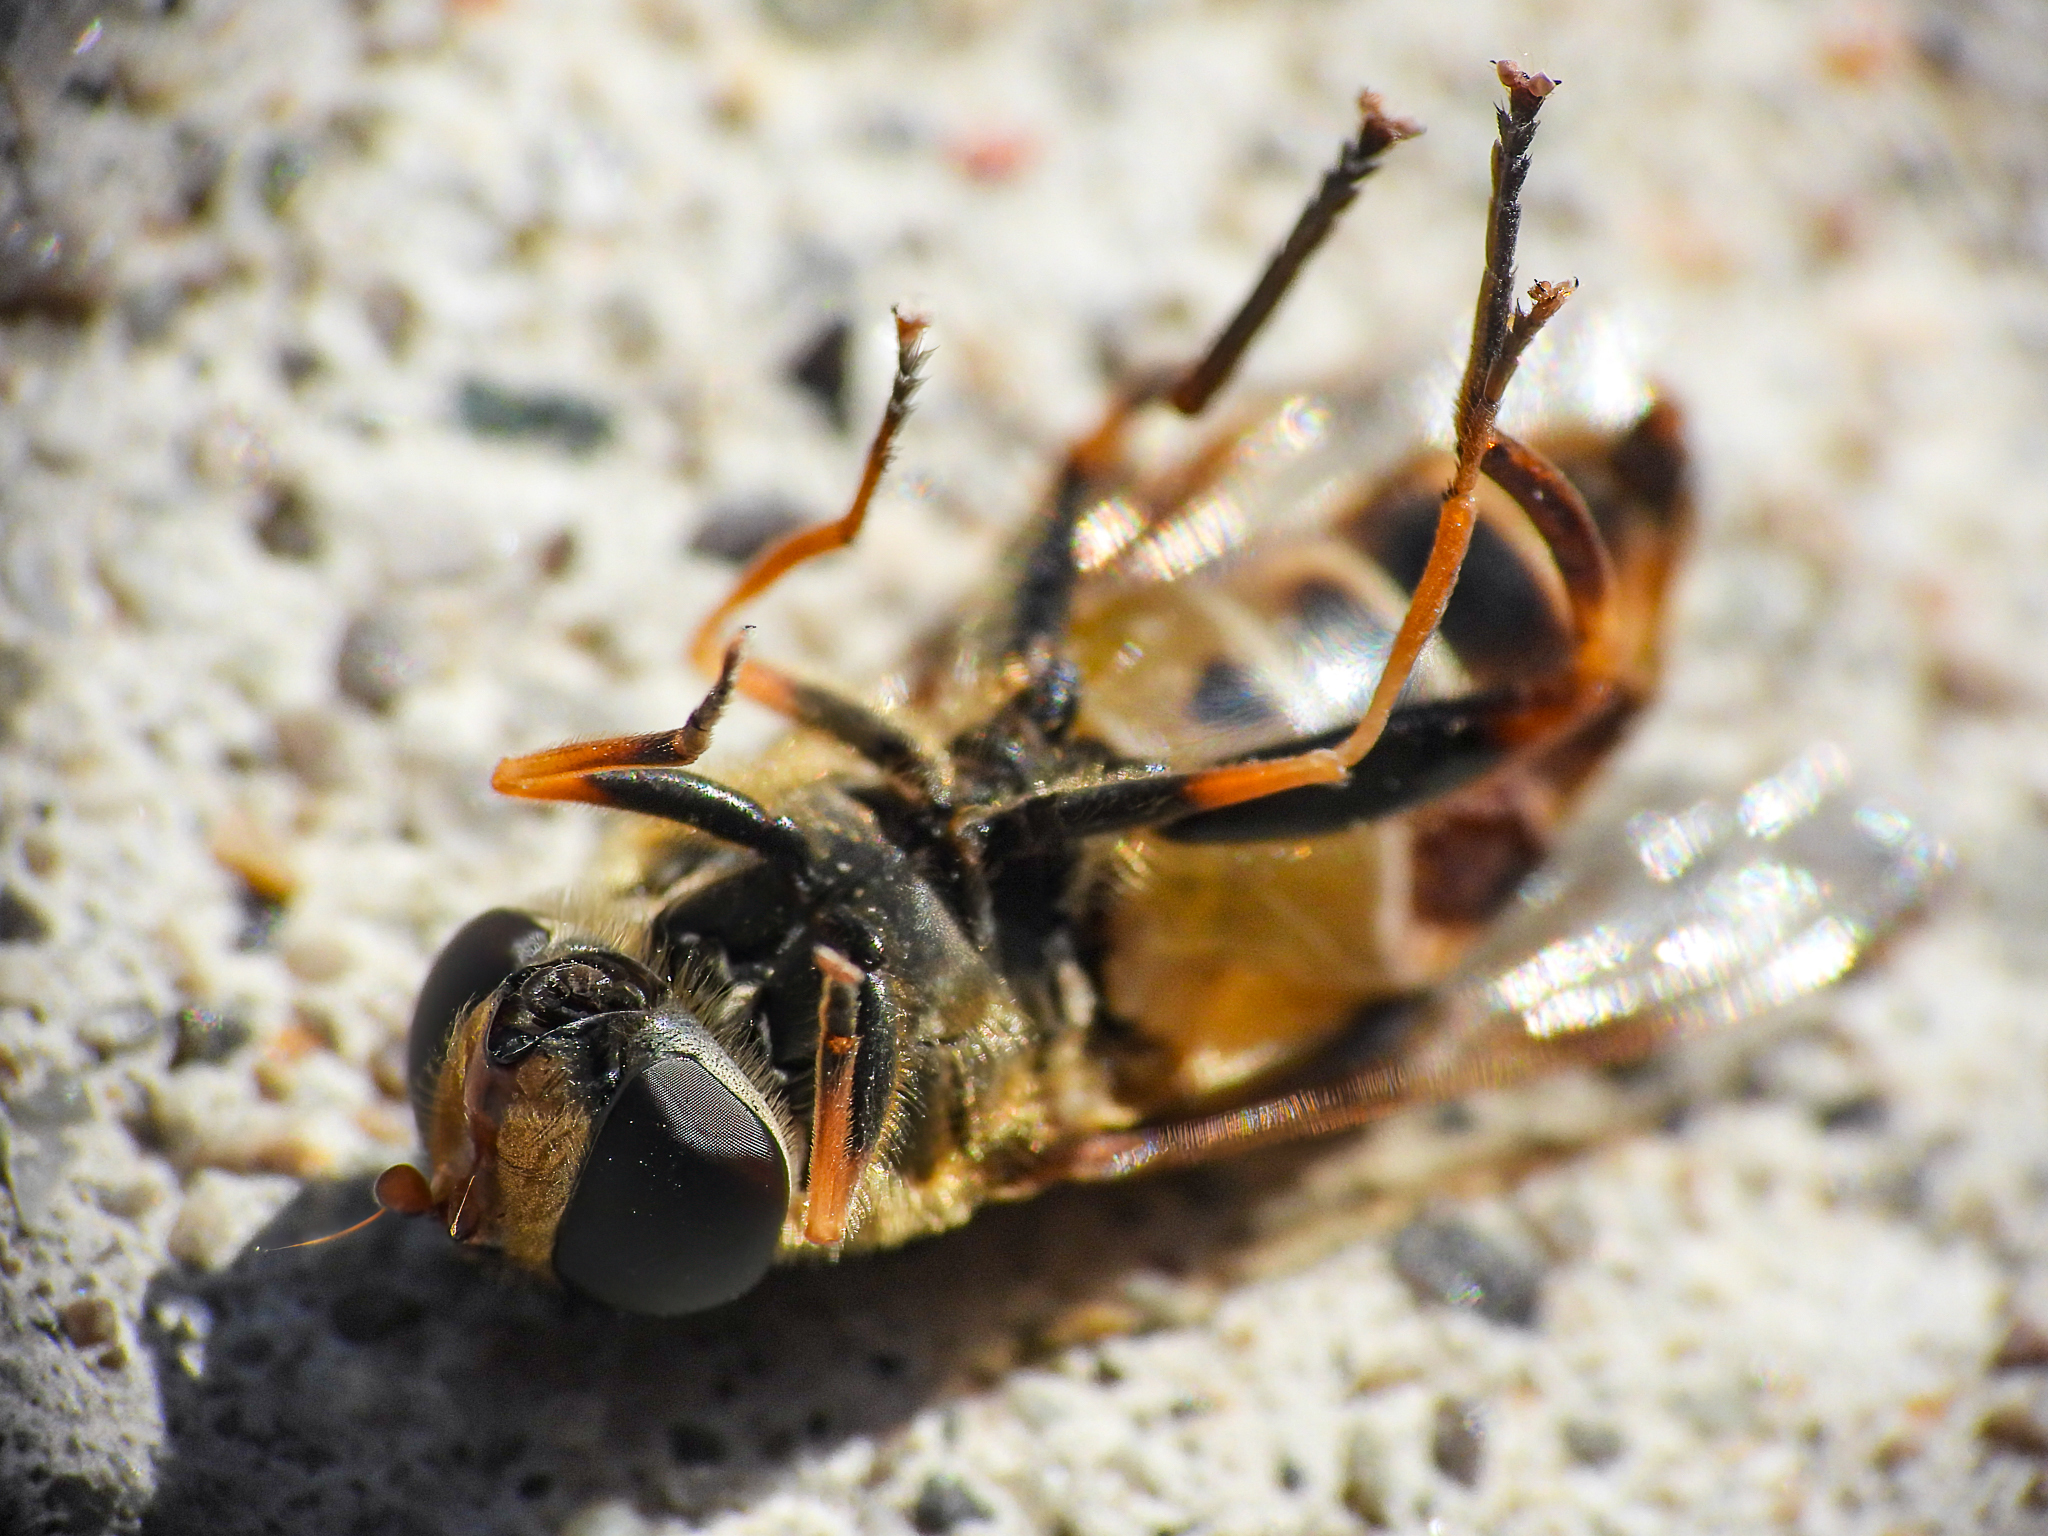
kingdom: Animalia
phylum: Arthropoda
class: Insecta
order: Diptera
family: Syrphidae
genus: Helophilus
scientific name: Helophilus fasciatus
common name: Narrow-headed marsh fly
